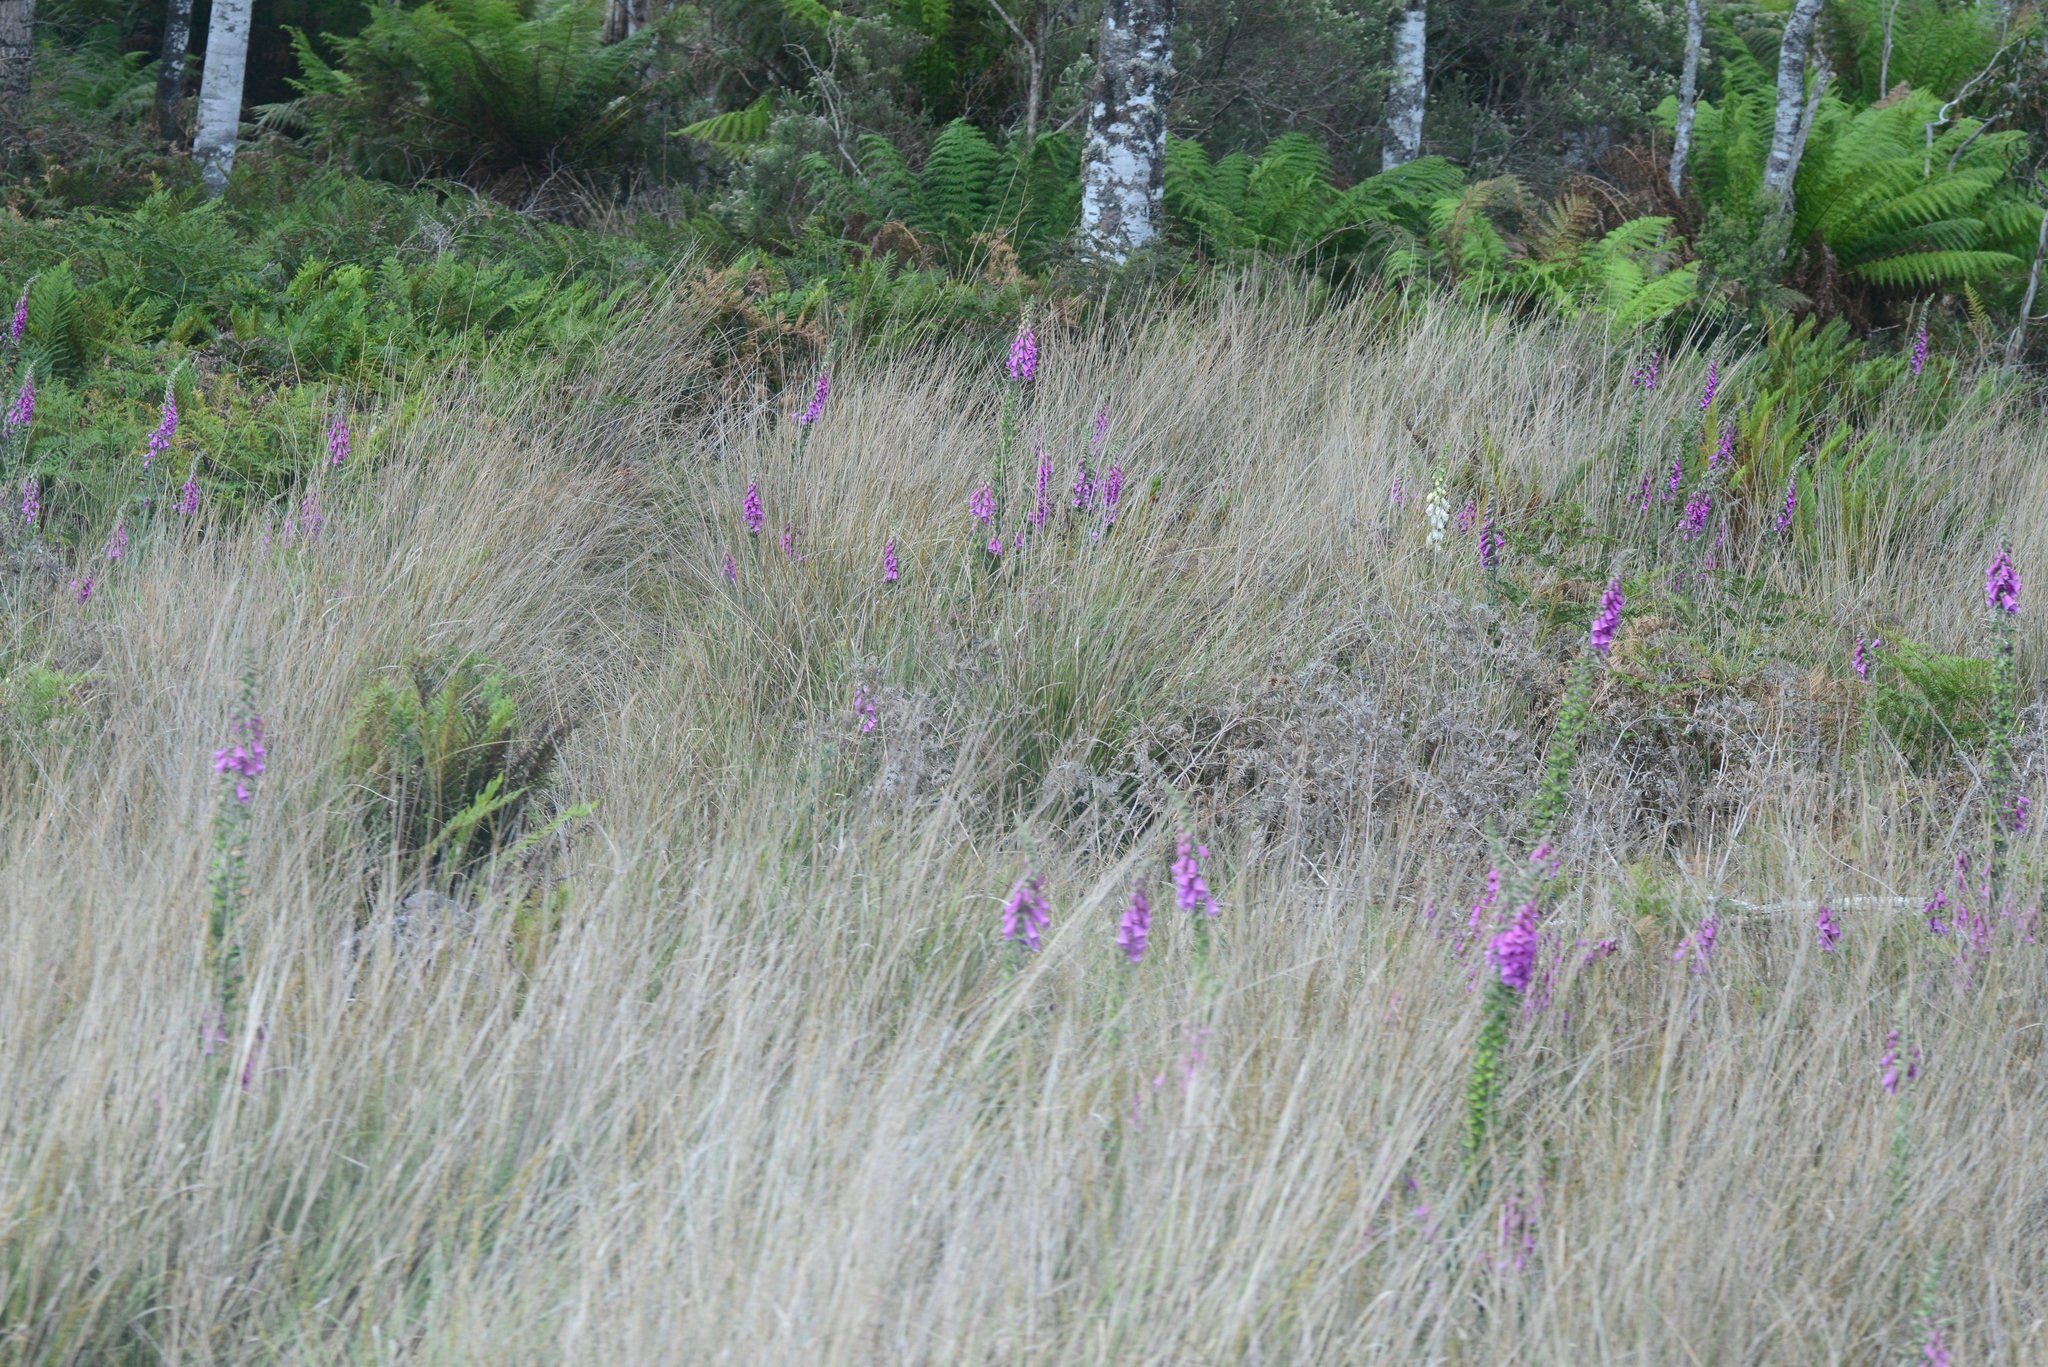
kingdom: Plantae
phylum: Tracheophyta
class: Magnoliopsida
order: Lamiales
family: Plantaginaceae
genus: Digitalis
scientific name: Digitalis purpurea
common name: Foxglove
